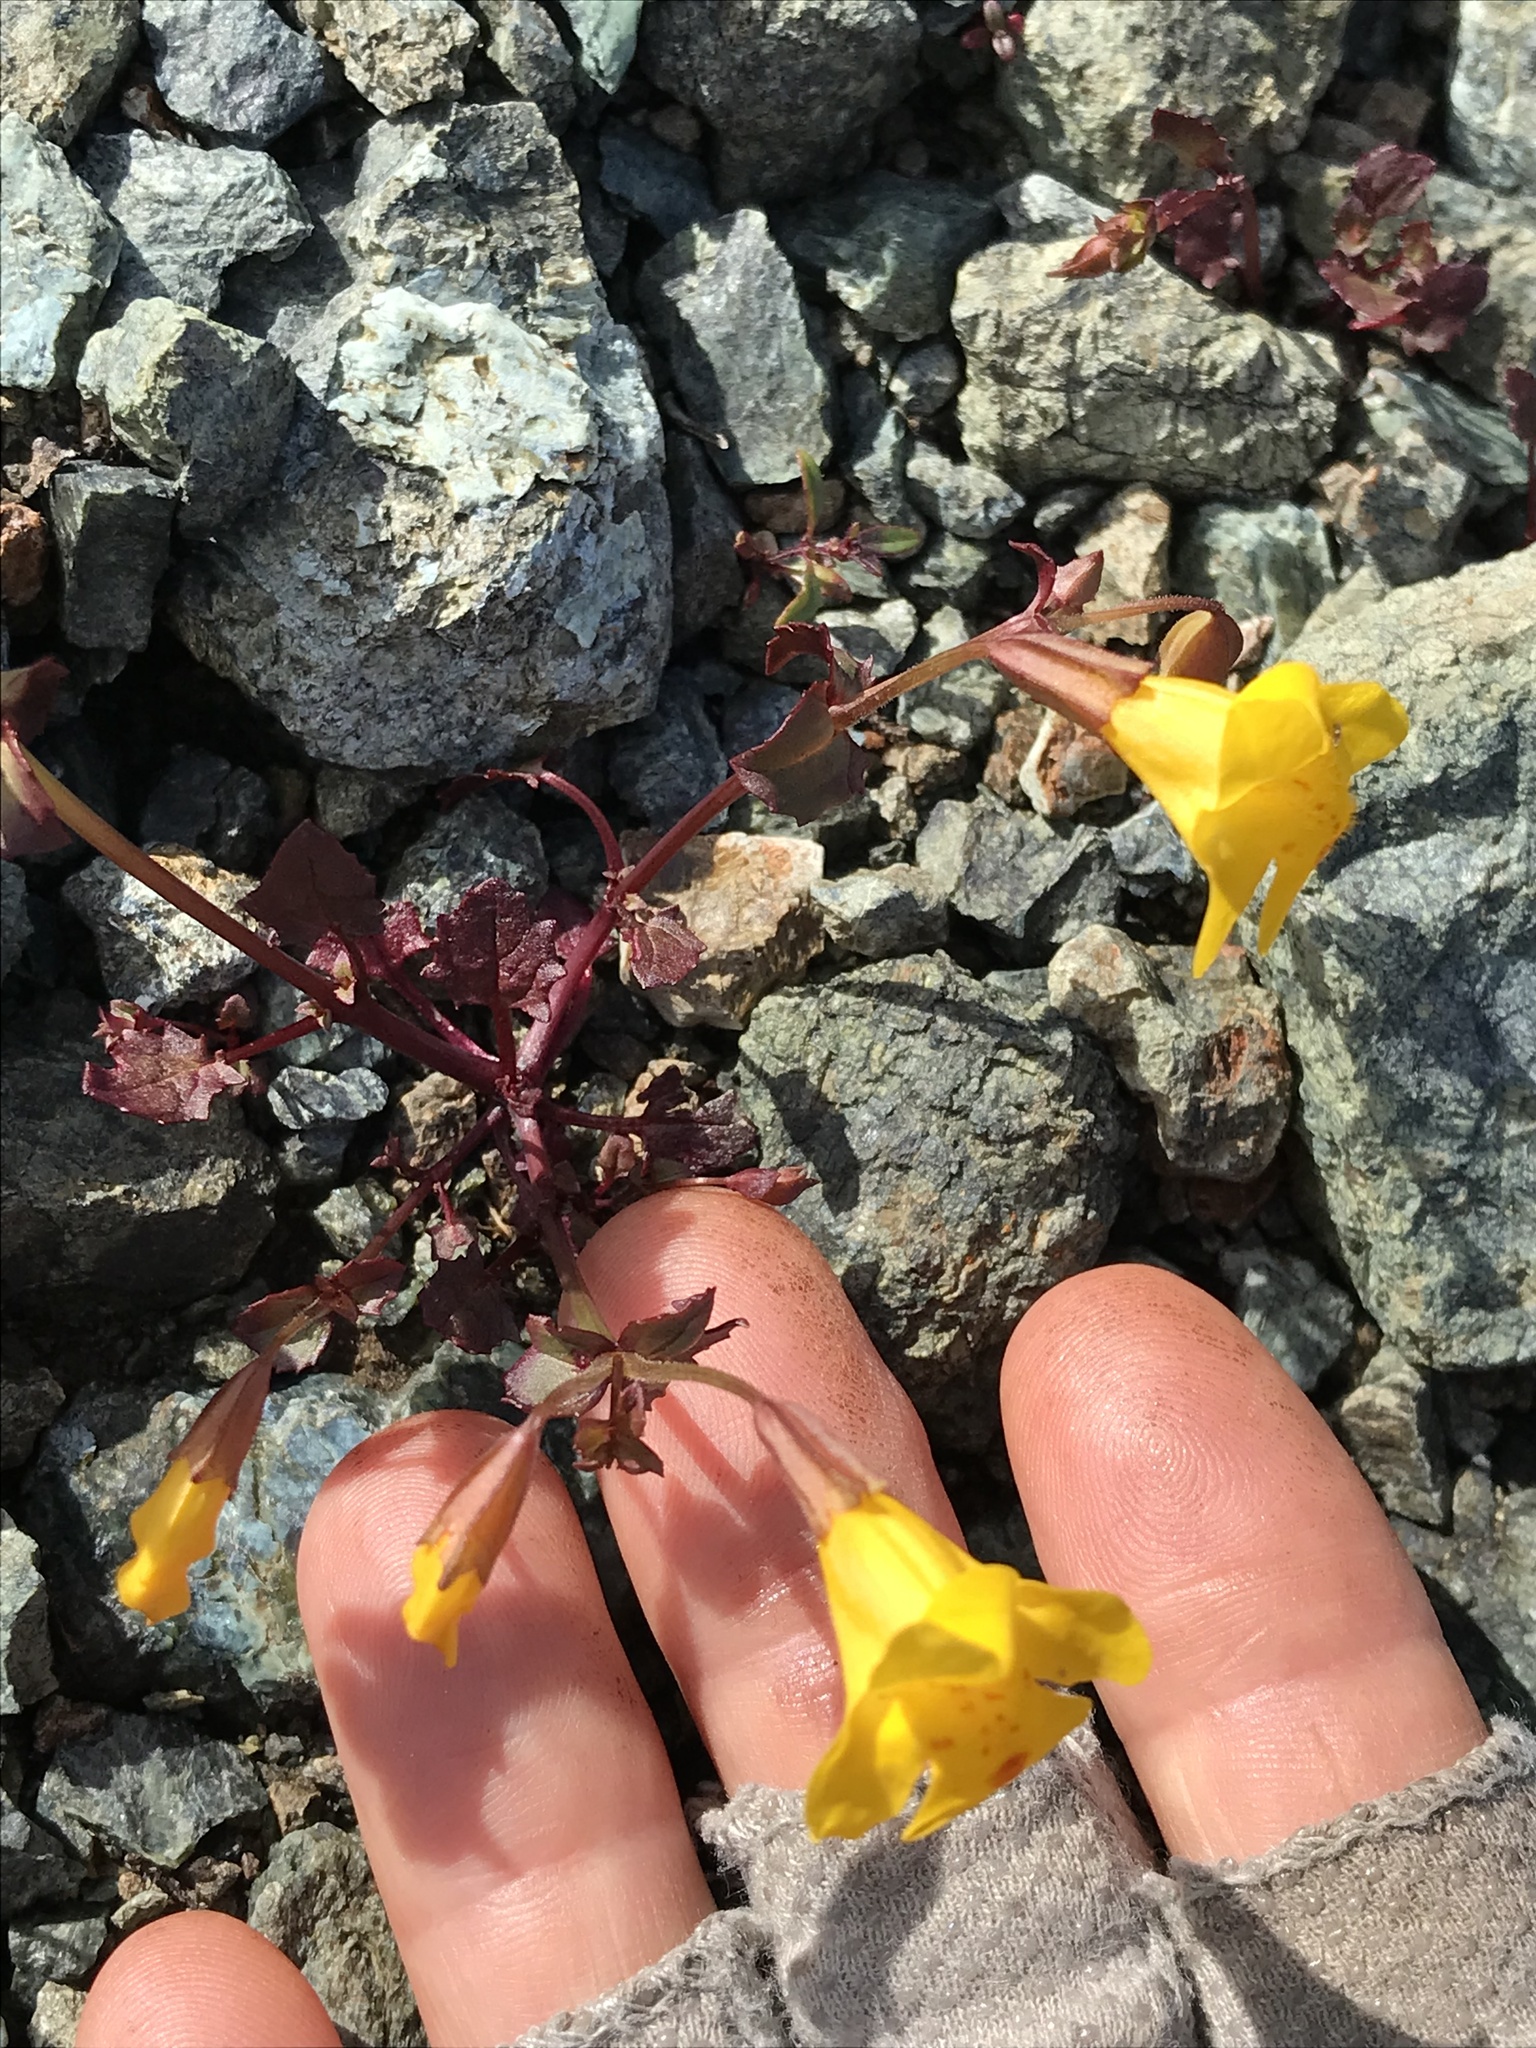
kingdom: Plantae
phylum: Tracheophyta
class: Magnoliopsida
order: Lamiales
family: Phrymaceae
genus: Erythranthe
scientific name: Erythranthe microphylla
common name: Bentham's monkeyflower
